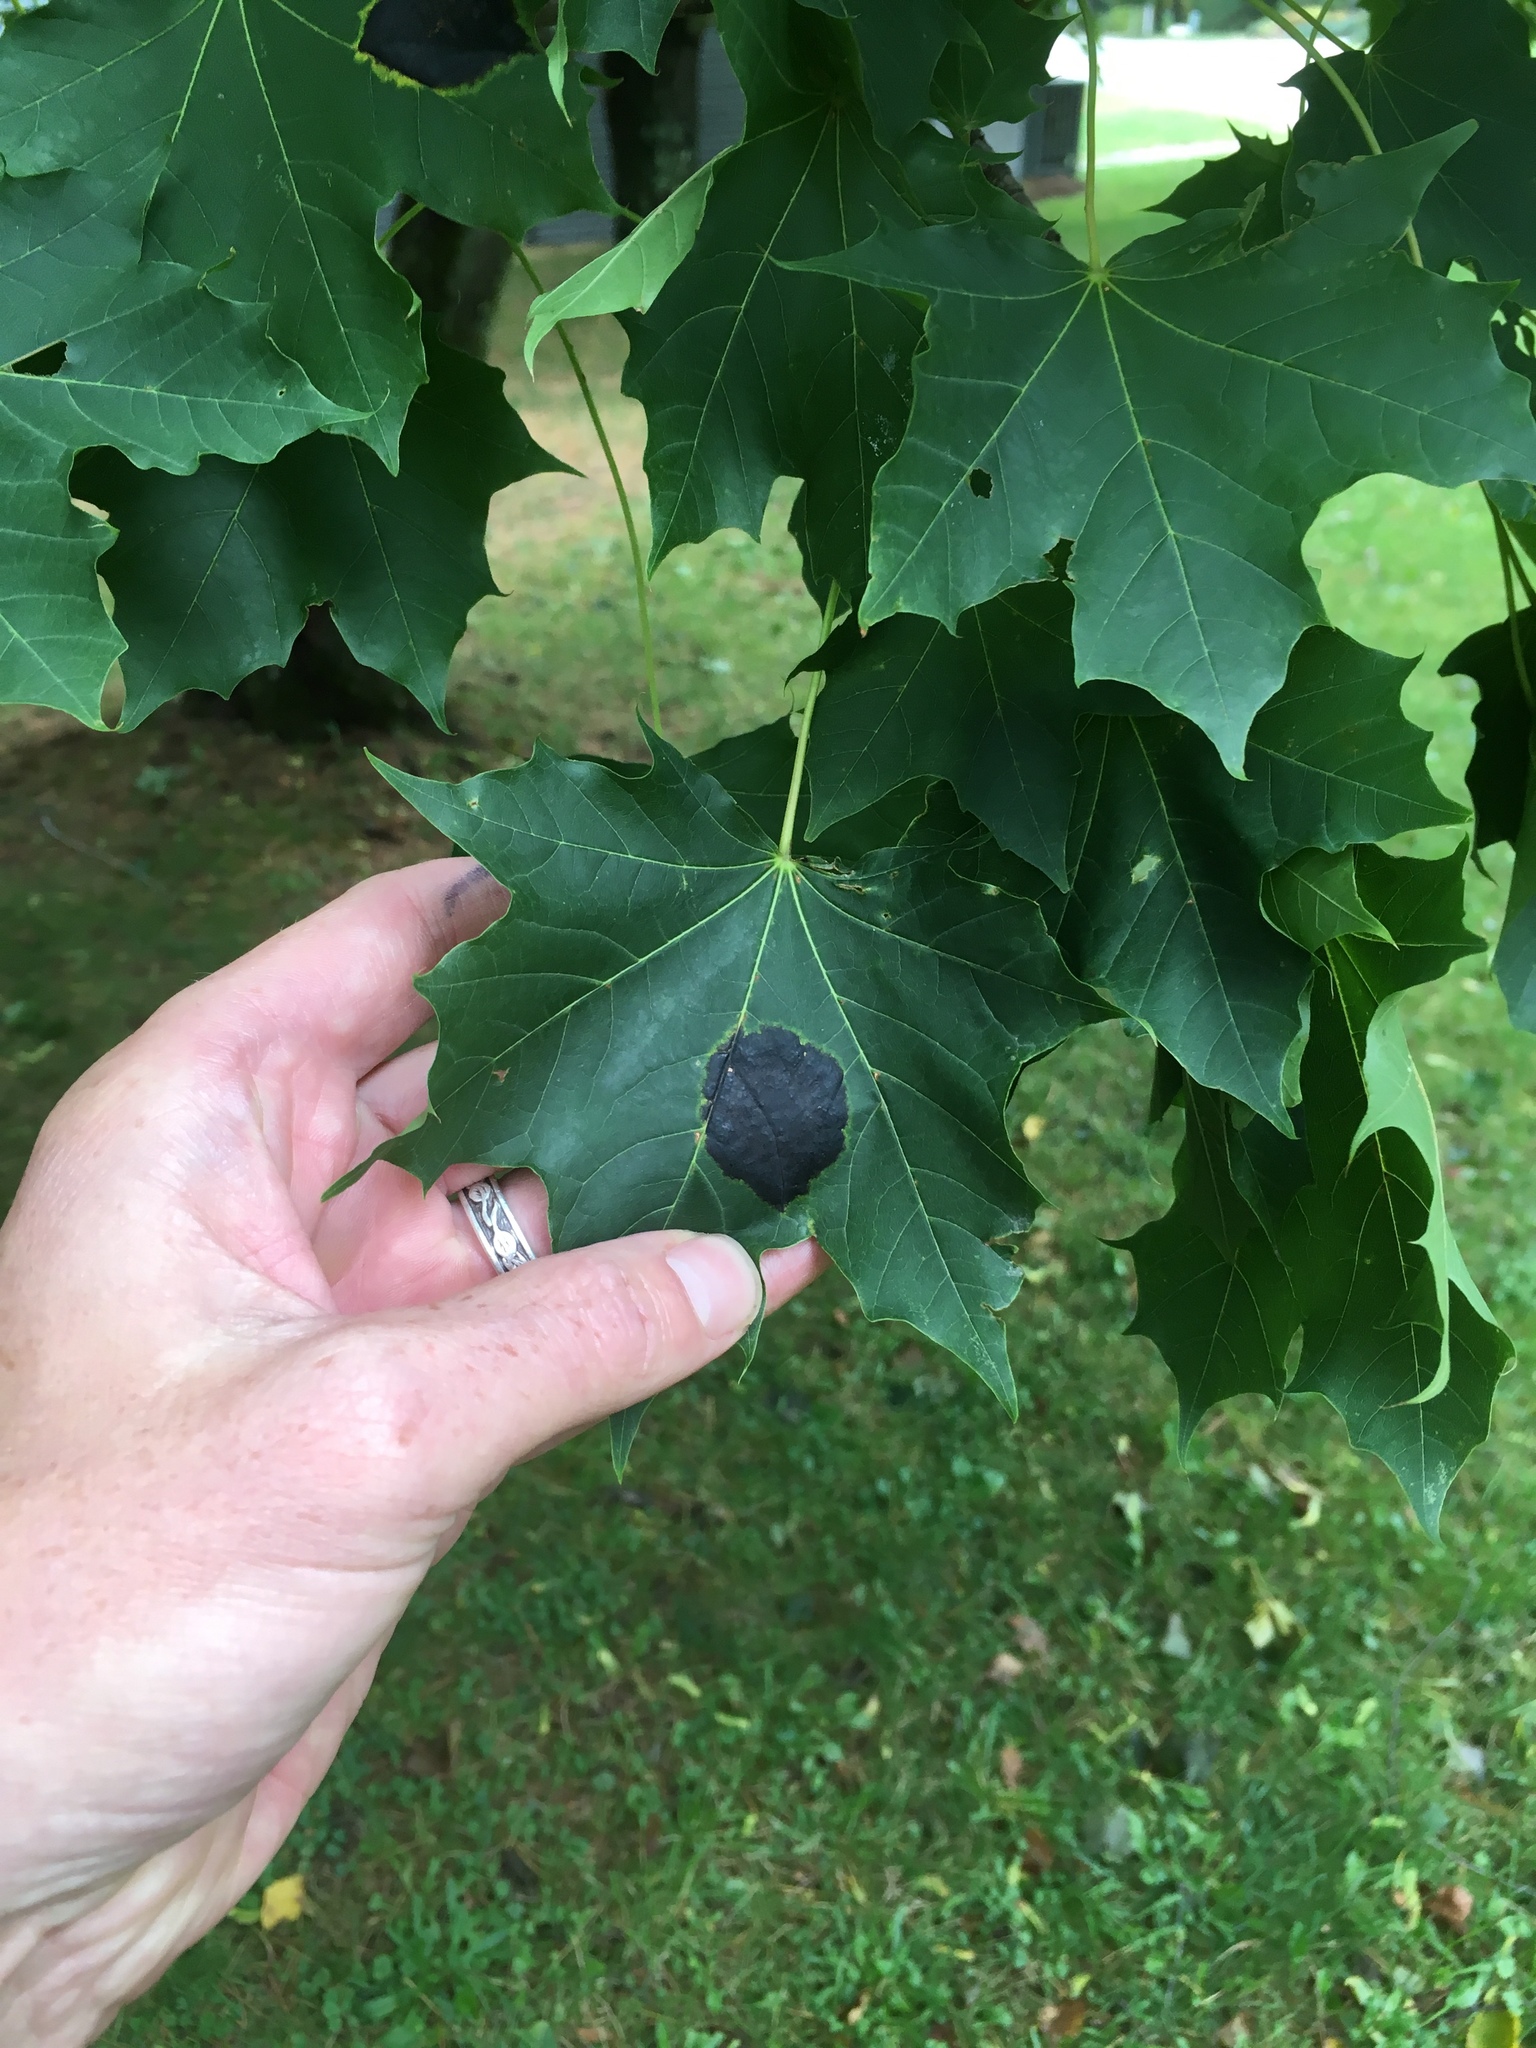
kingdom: Fungi
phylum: Ascomycota
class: Leotiomycetes
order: Rhytismatales
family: Rhytismataceae
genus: Rhytisma
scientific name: Rhytisma acerinum
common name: European tar spot
